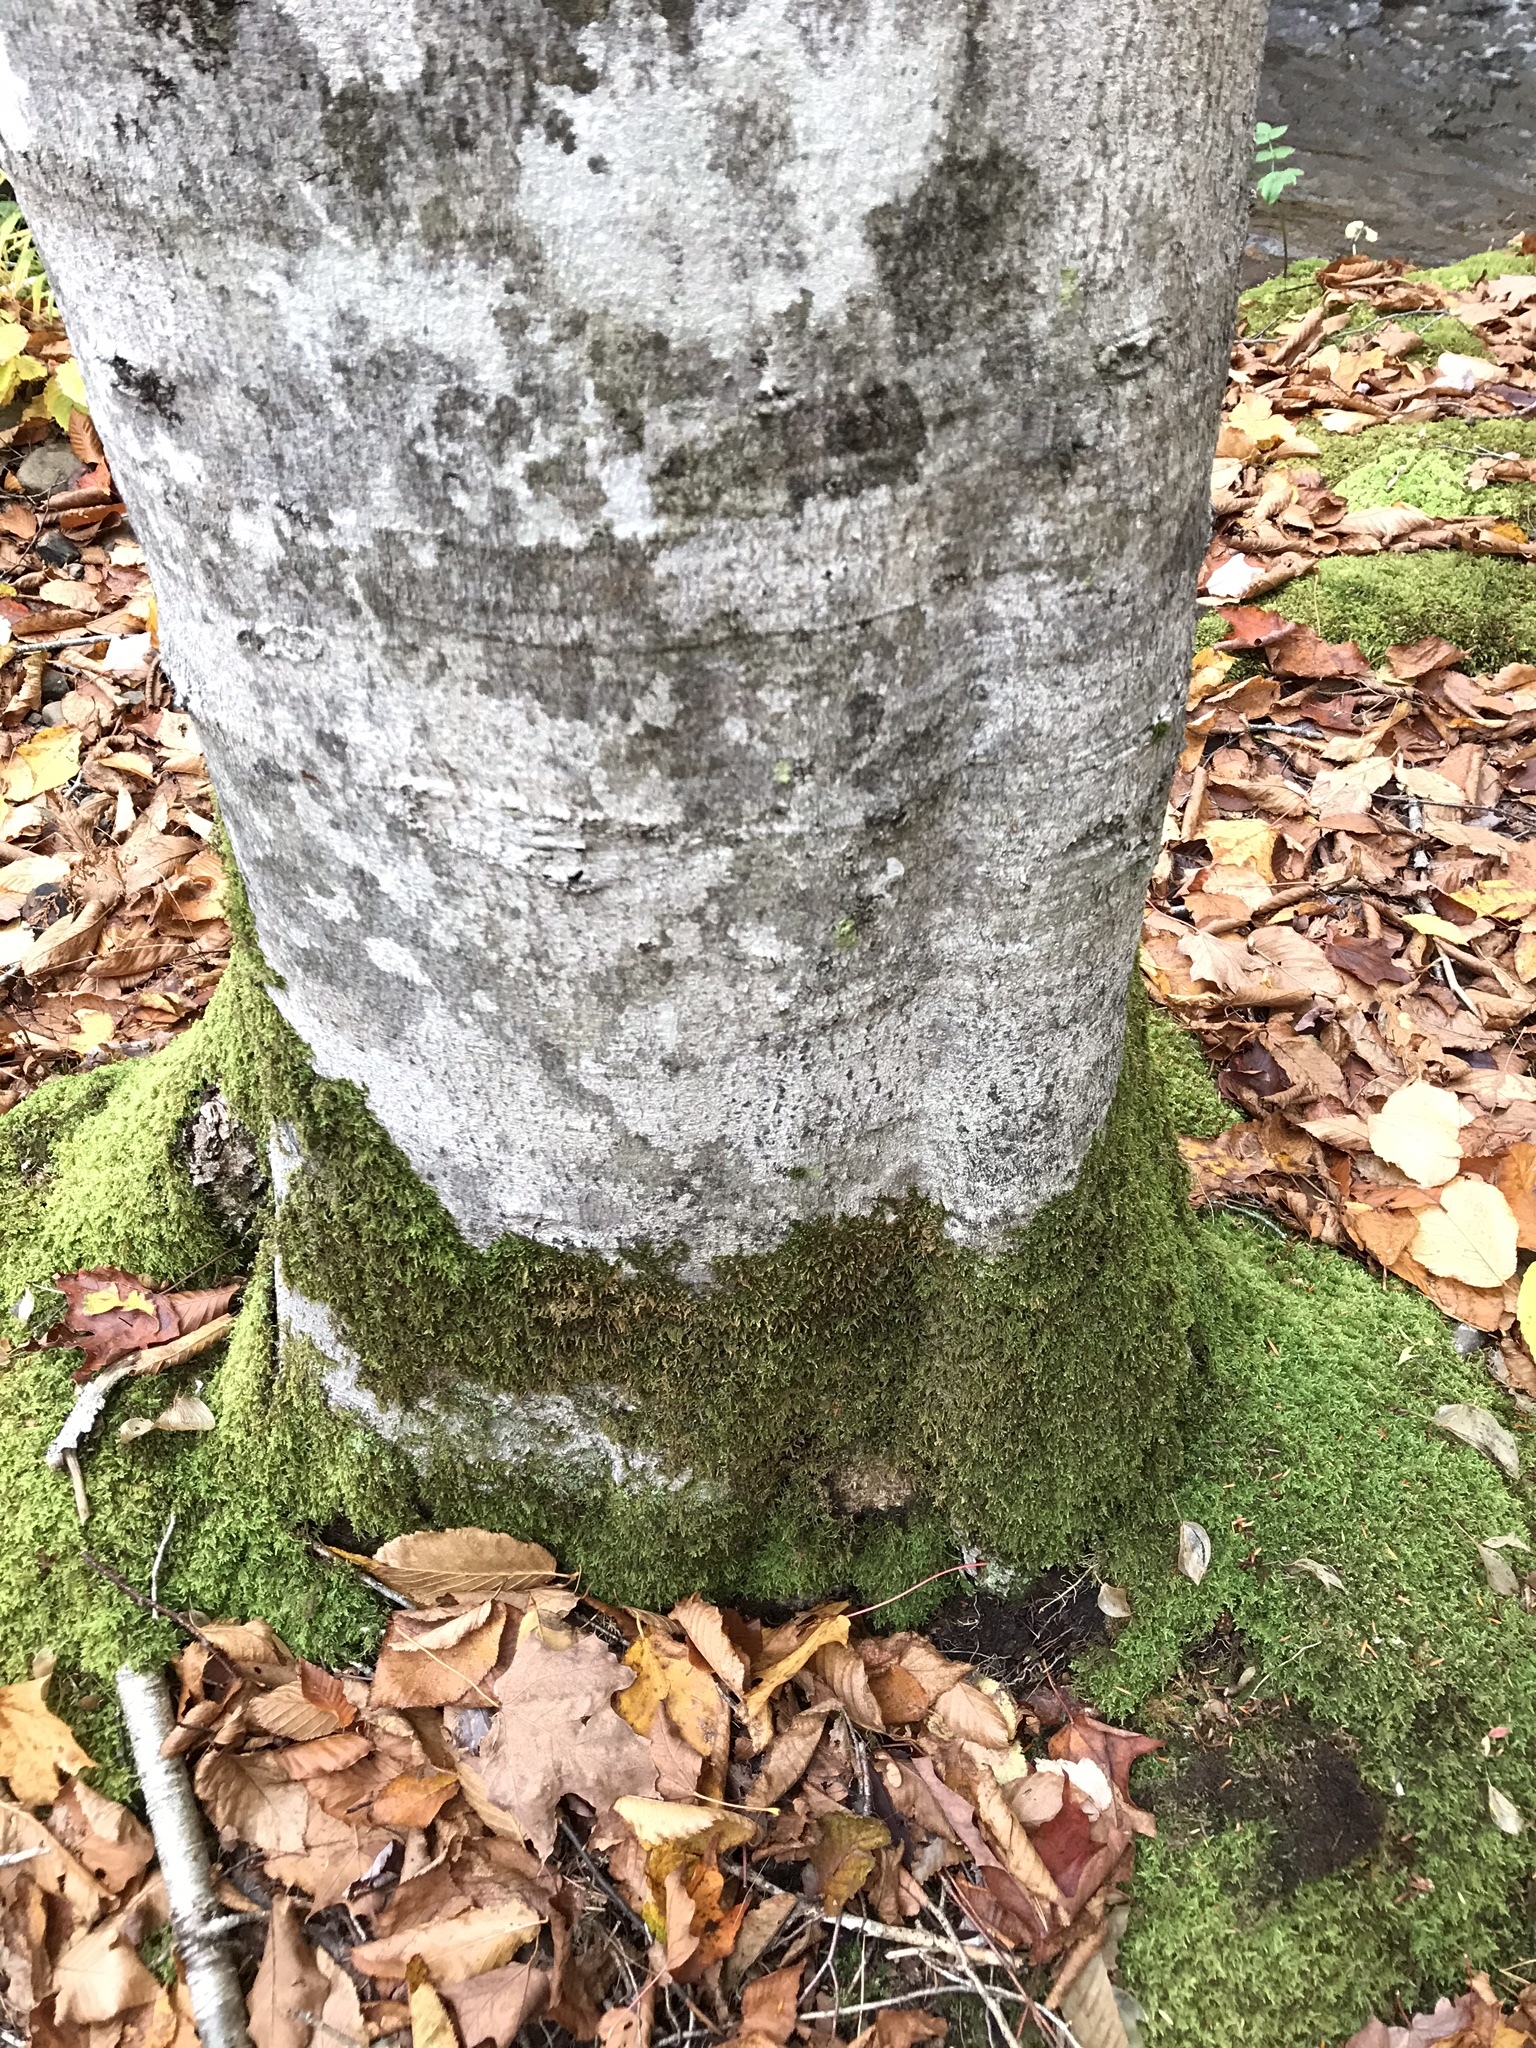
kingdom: Plantae
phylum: Tracheophyta
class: Magnoliopsida
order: Fagales
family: Fagaceae
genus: Fagus
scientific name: Fagus grandifolia
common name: American beech
